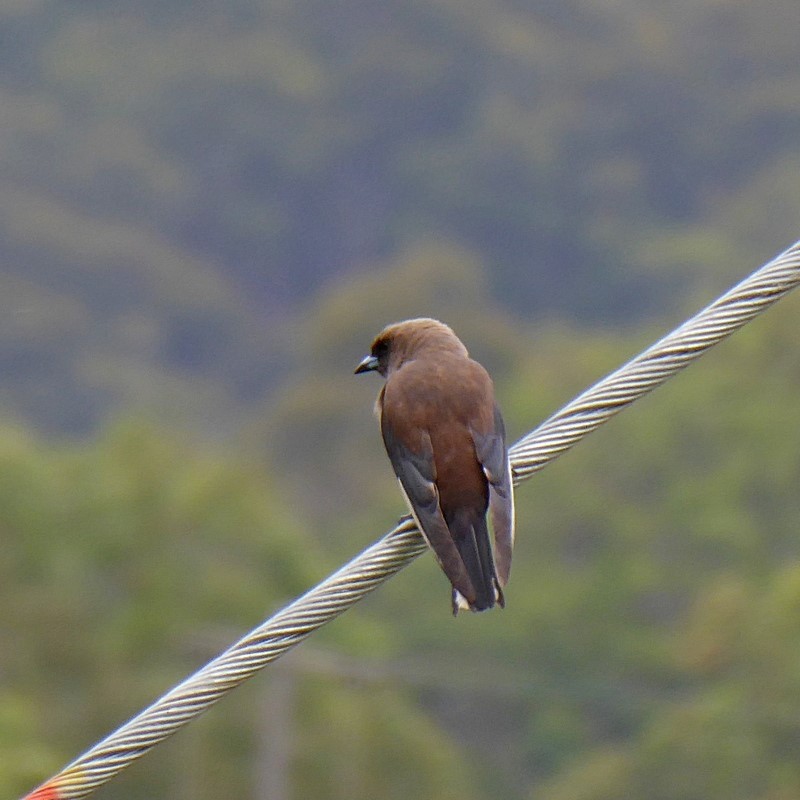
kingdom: Animalia
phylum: Chordata
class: Aves
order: Passeriformes
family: Artamidae
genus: Artamus
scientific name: Artamus cyanopterus
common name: Dusky woodswallow
